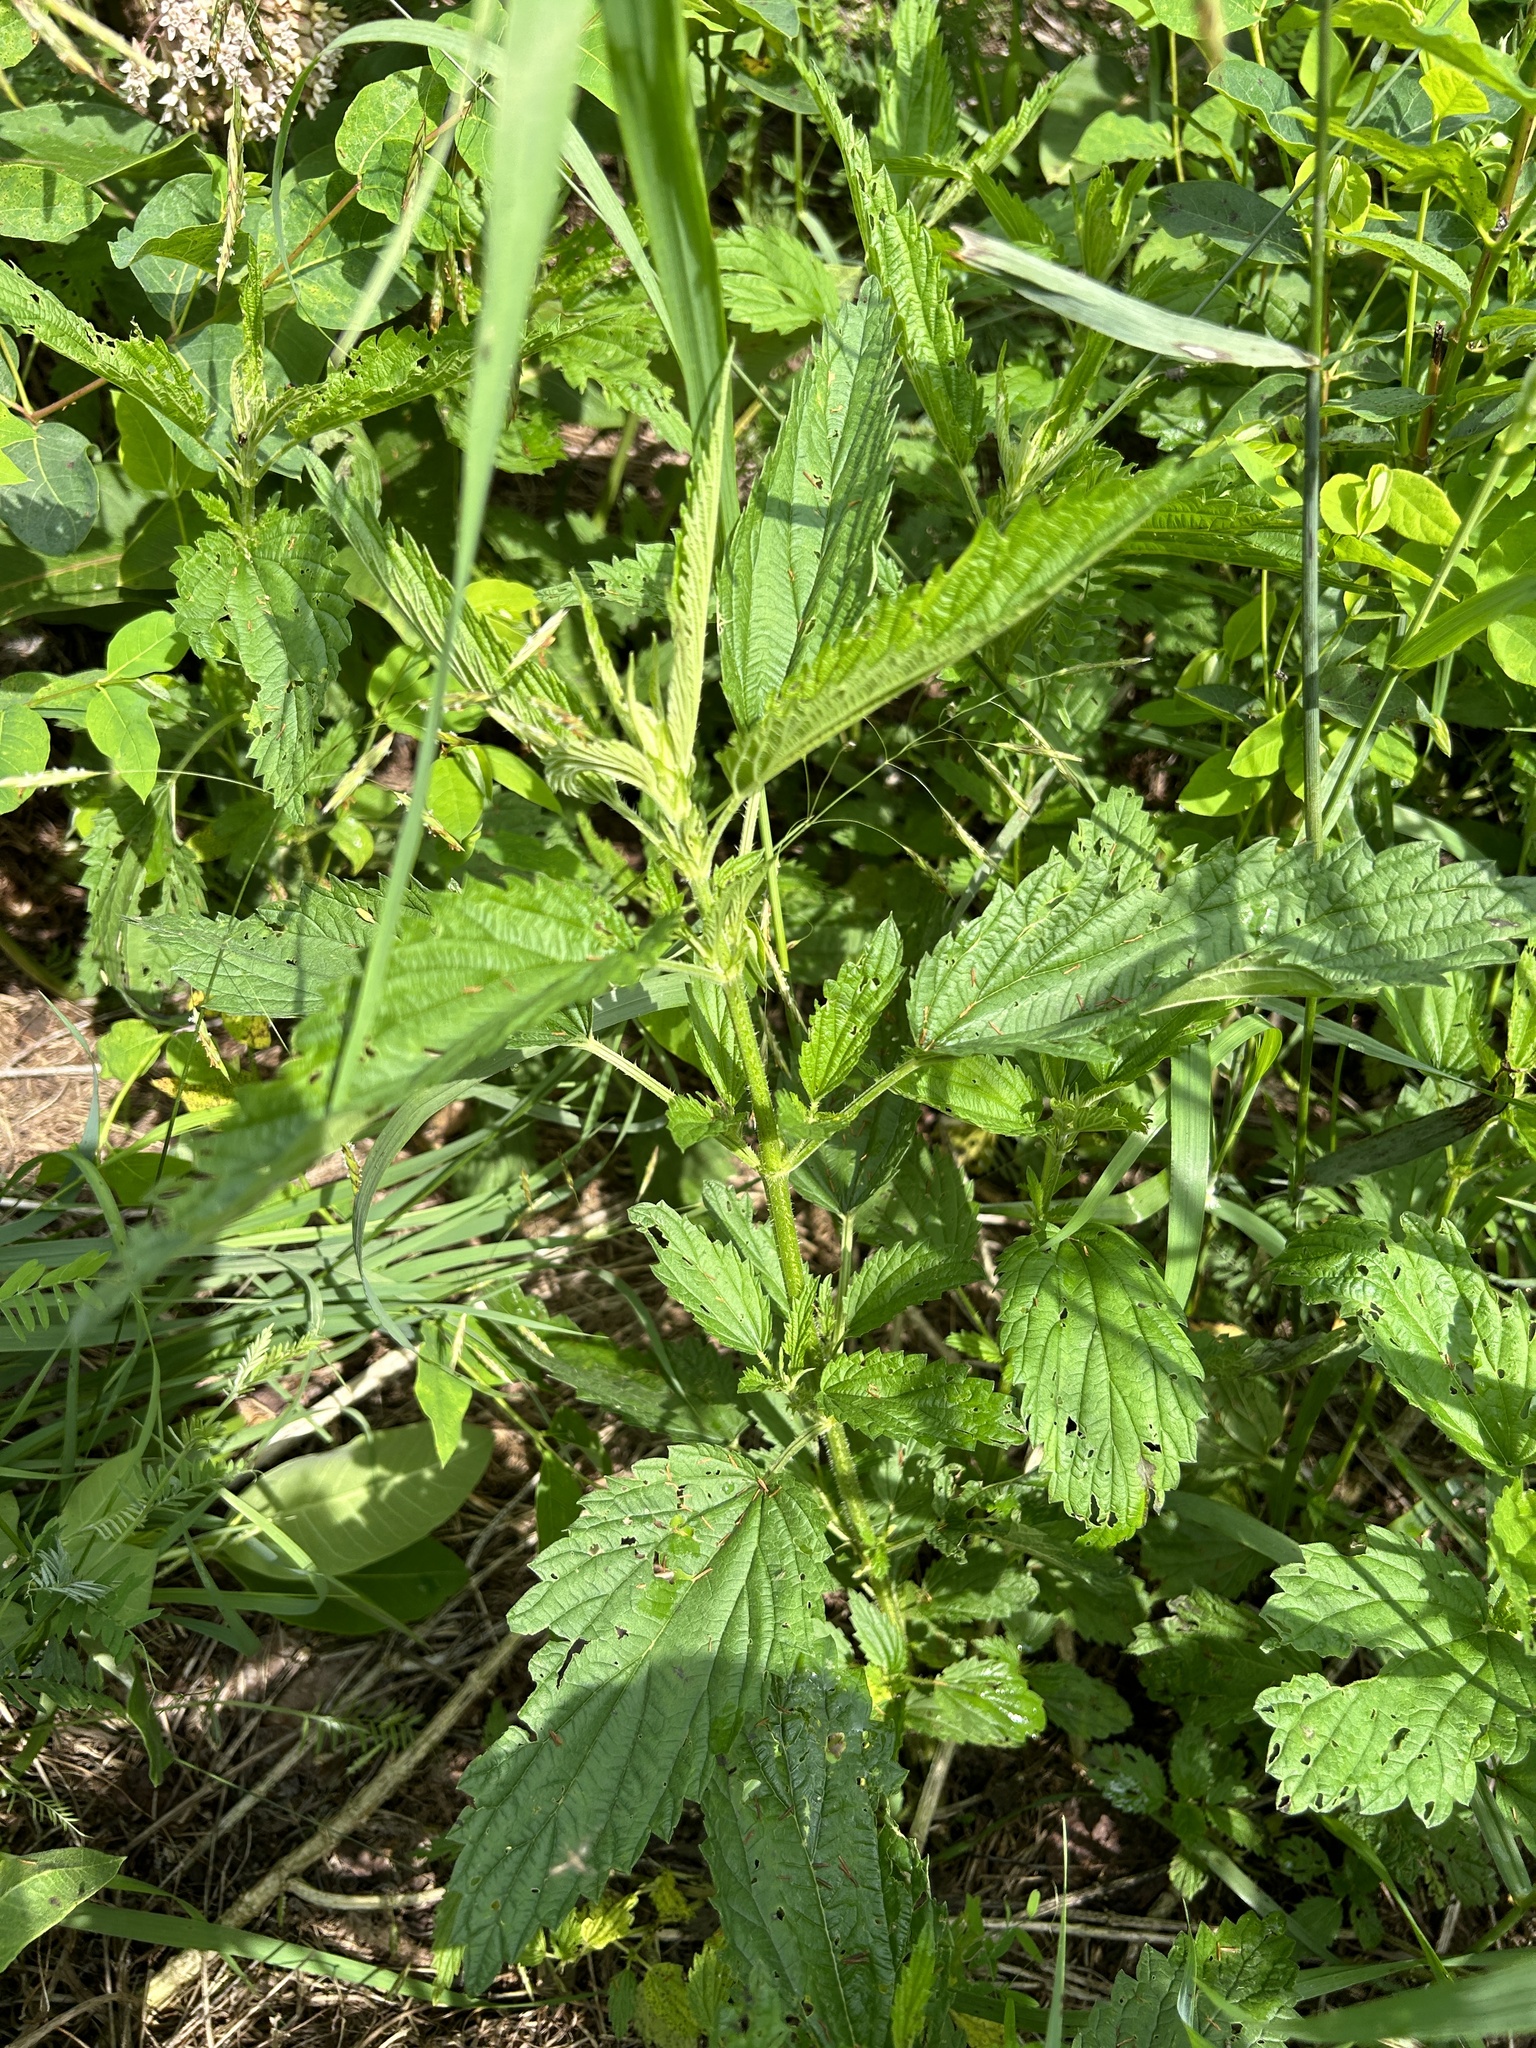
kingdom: Plantae
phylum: Tracheophyta
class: Magnoliopsida
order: Rosales
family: Urticaceae
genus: Urtica
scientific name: Urtica gracilis
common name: Slender stinging nettle
